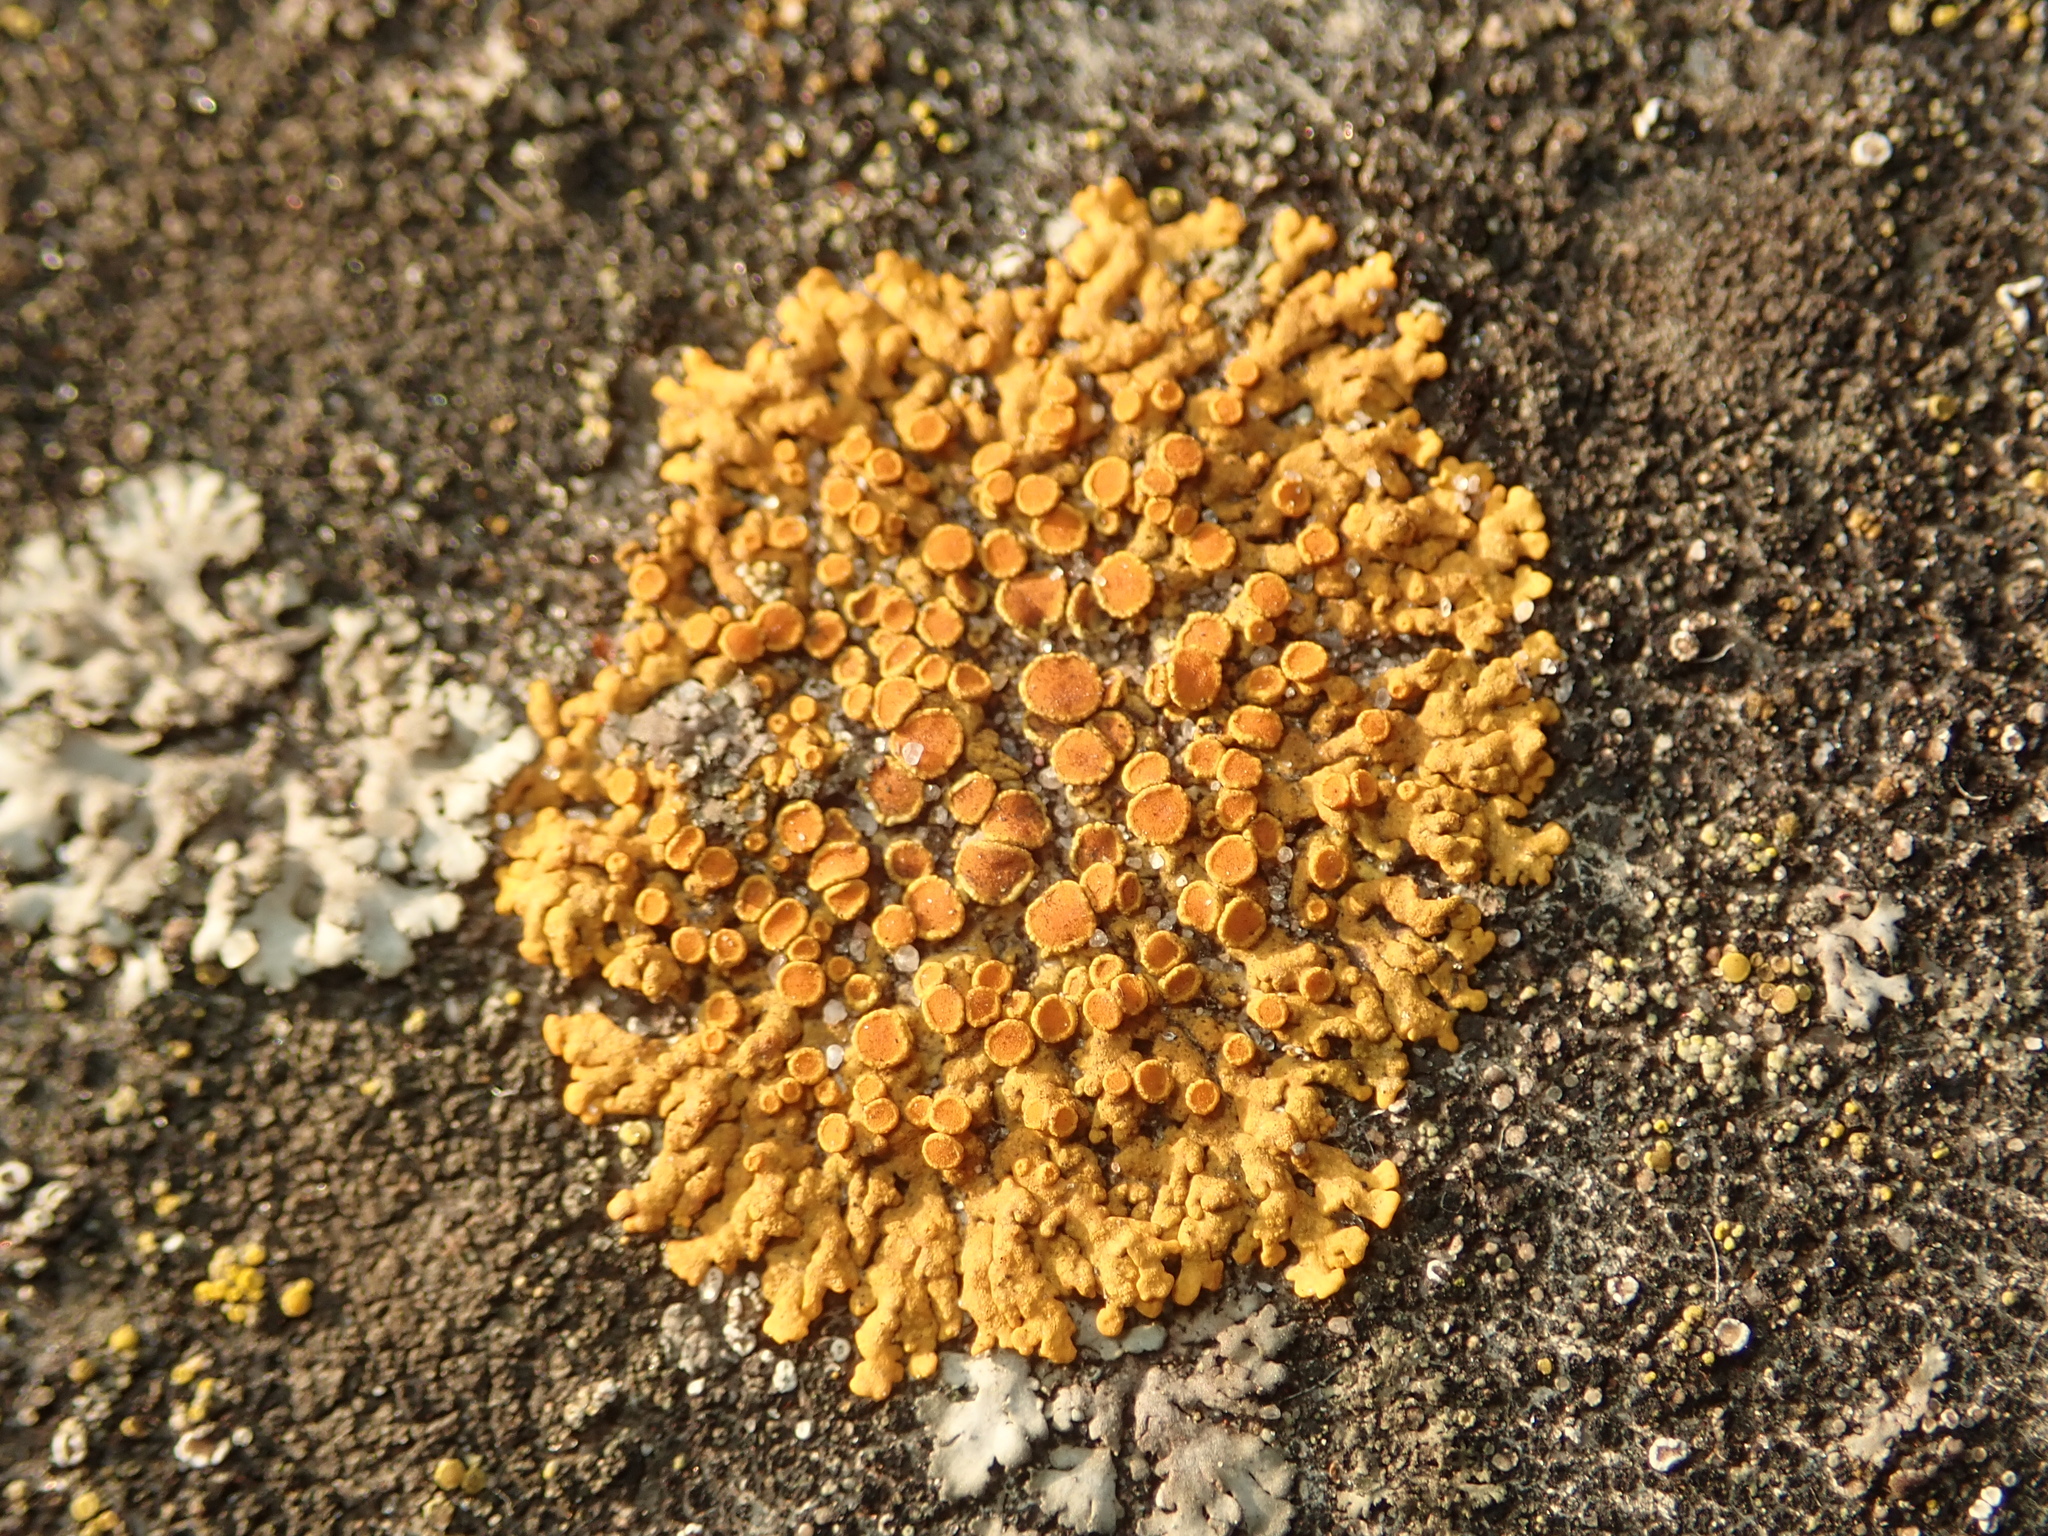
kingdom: Fungi
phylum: Ascomycota
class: Lecanoromycetes
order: Teloschistales
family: Teloschistaceae
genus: Xanthoria
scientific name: Xanthoria elegans
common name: Elegant sunburst lichen
